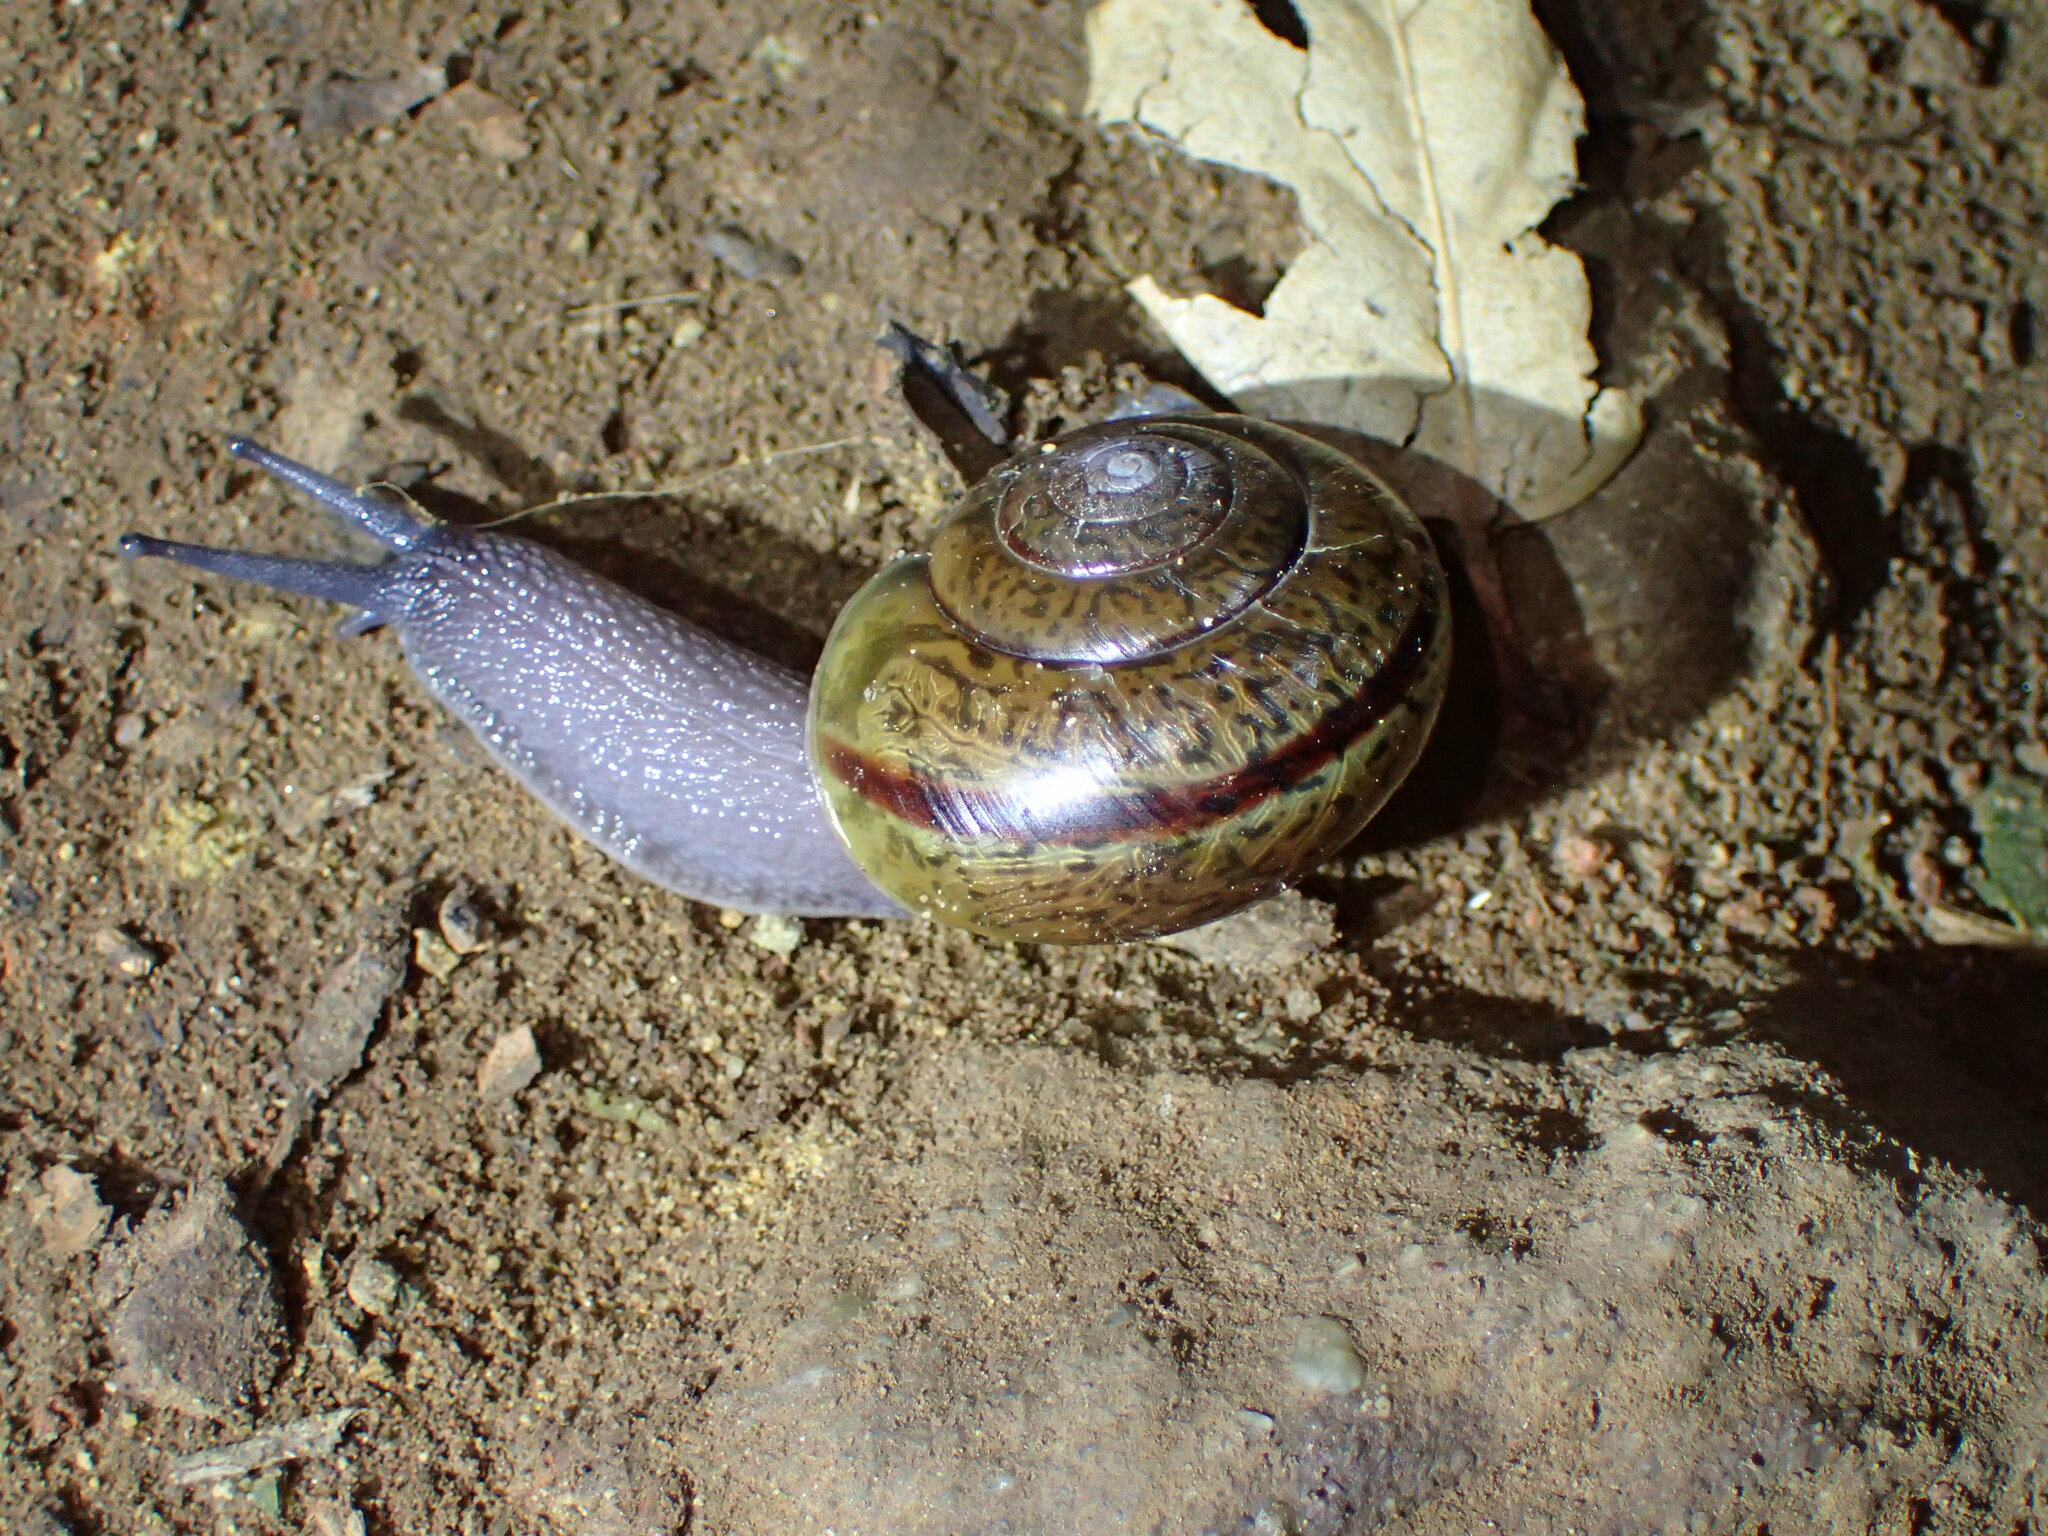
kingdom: Animalia
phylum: Mollusca
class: Gastropoda
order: Stylommatophora
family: Xanthonychidae
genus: Helminthoglypta
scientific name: Helminthoglypta phlyctaena
